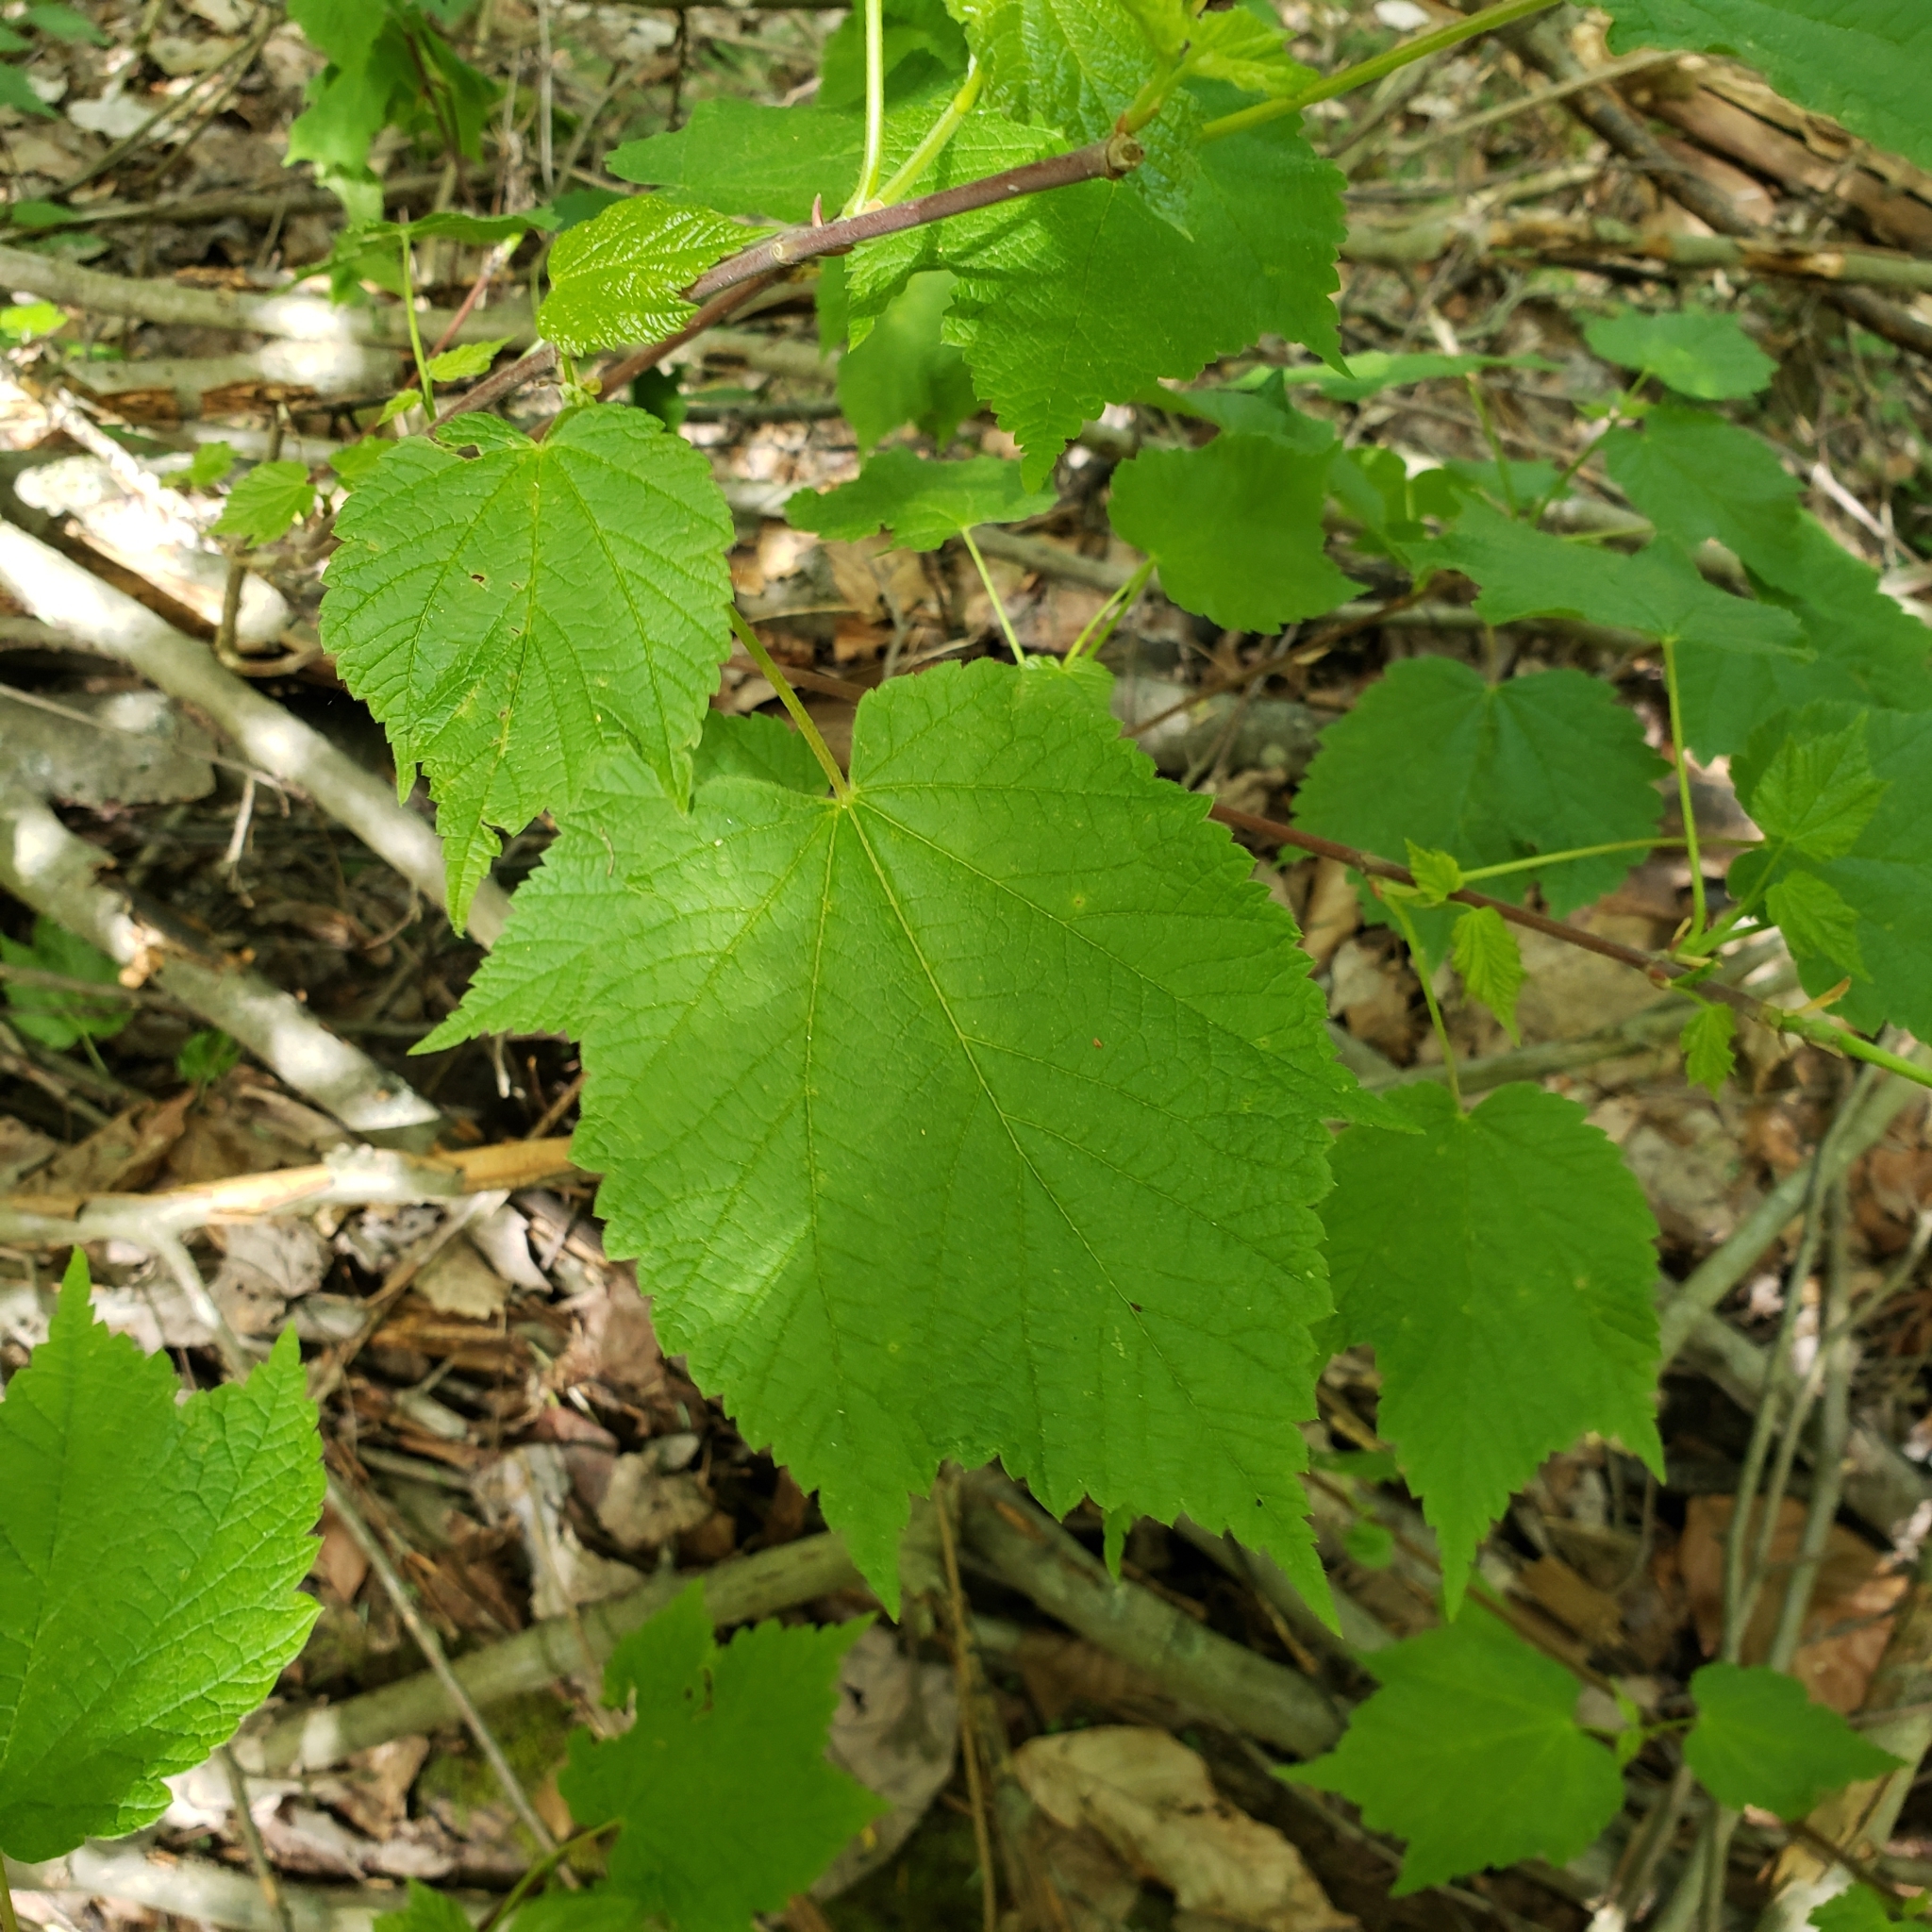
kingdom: Plantae
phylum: Tracheophyta
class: Magnoliopsida
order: Sapindales
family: Sapindaceae
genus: Acer
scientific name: Acer spicatum
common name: Mountain maple
